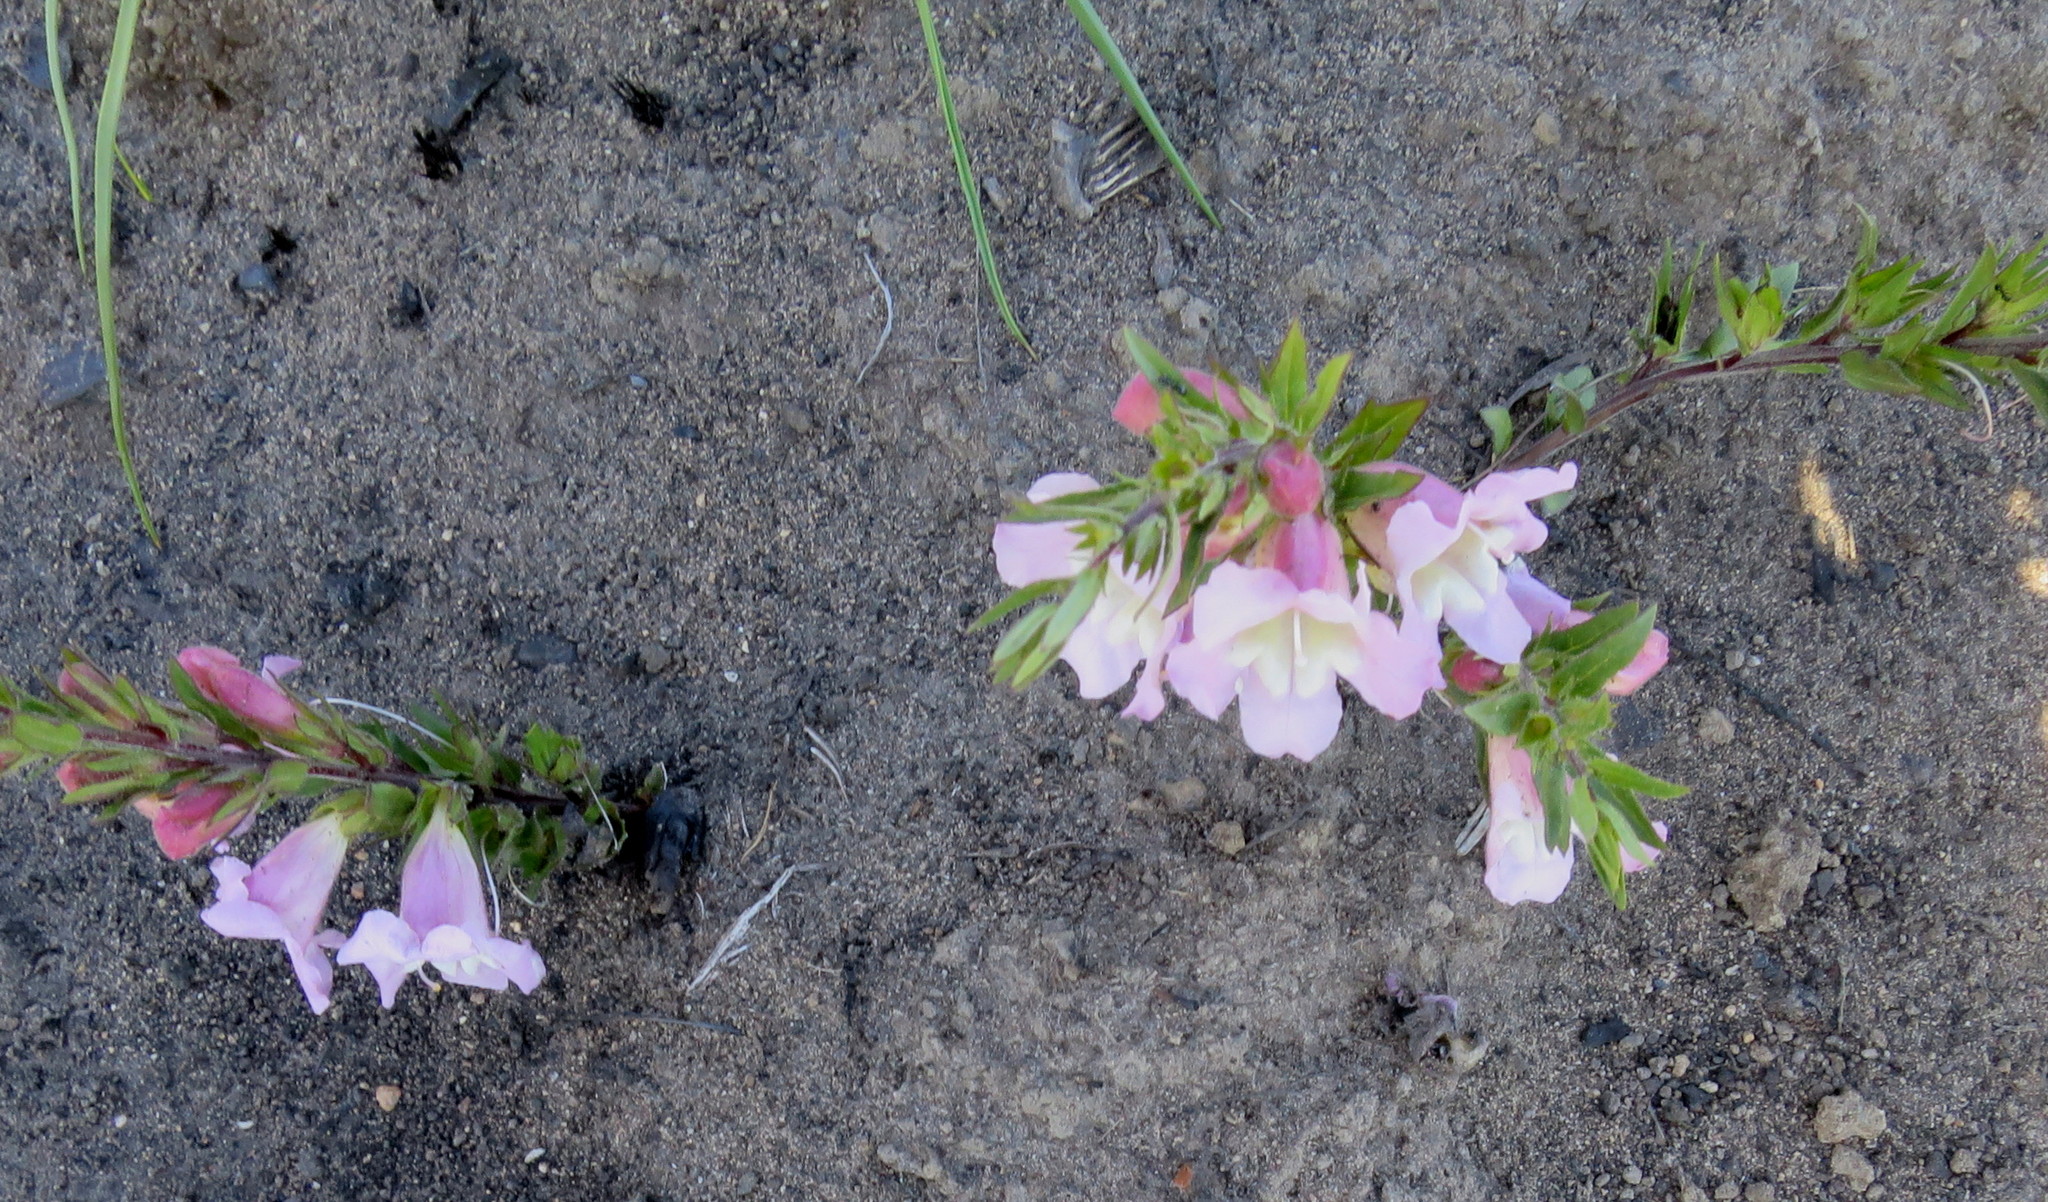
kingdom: Plantae
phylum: Tracheophyta
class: Magnoliopsida
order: Lamiales
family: Orobanchaceae
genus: Graderia
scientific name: Graderia scabra
